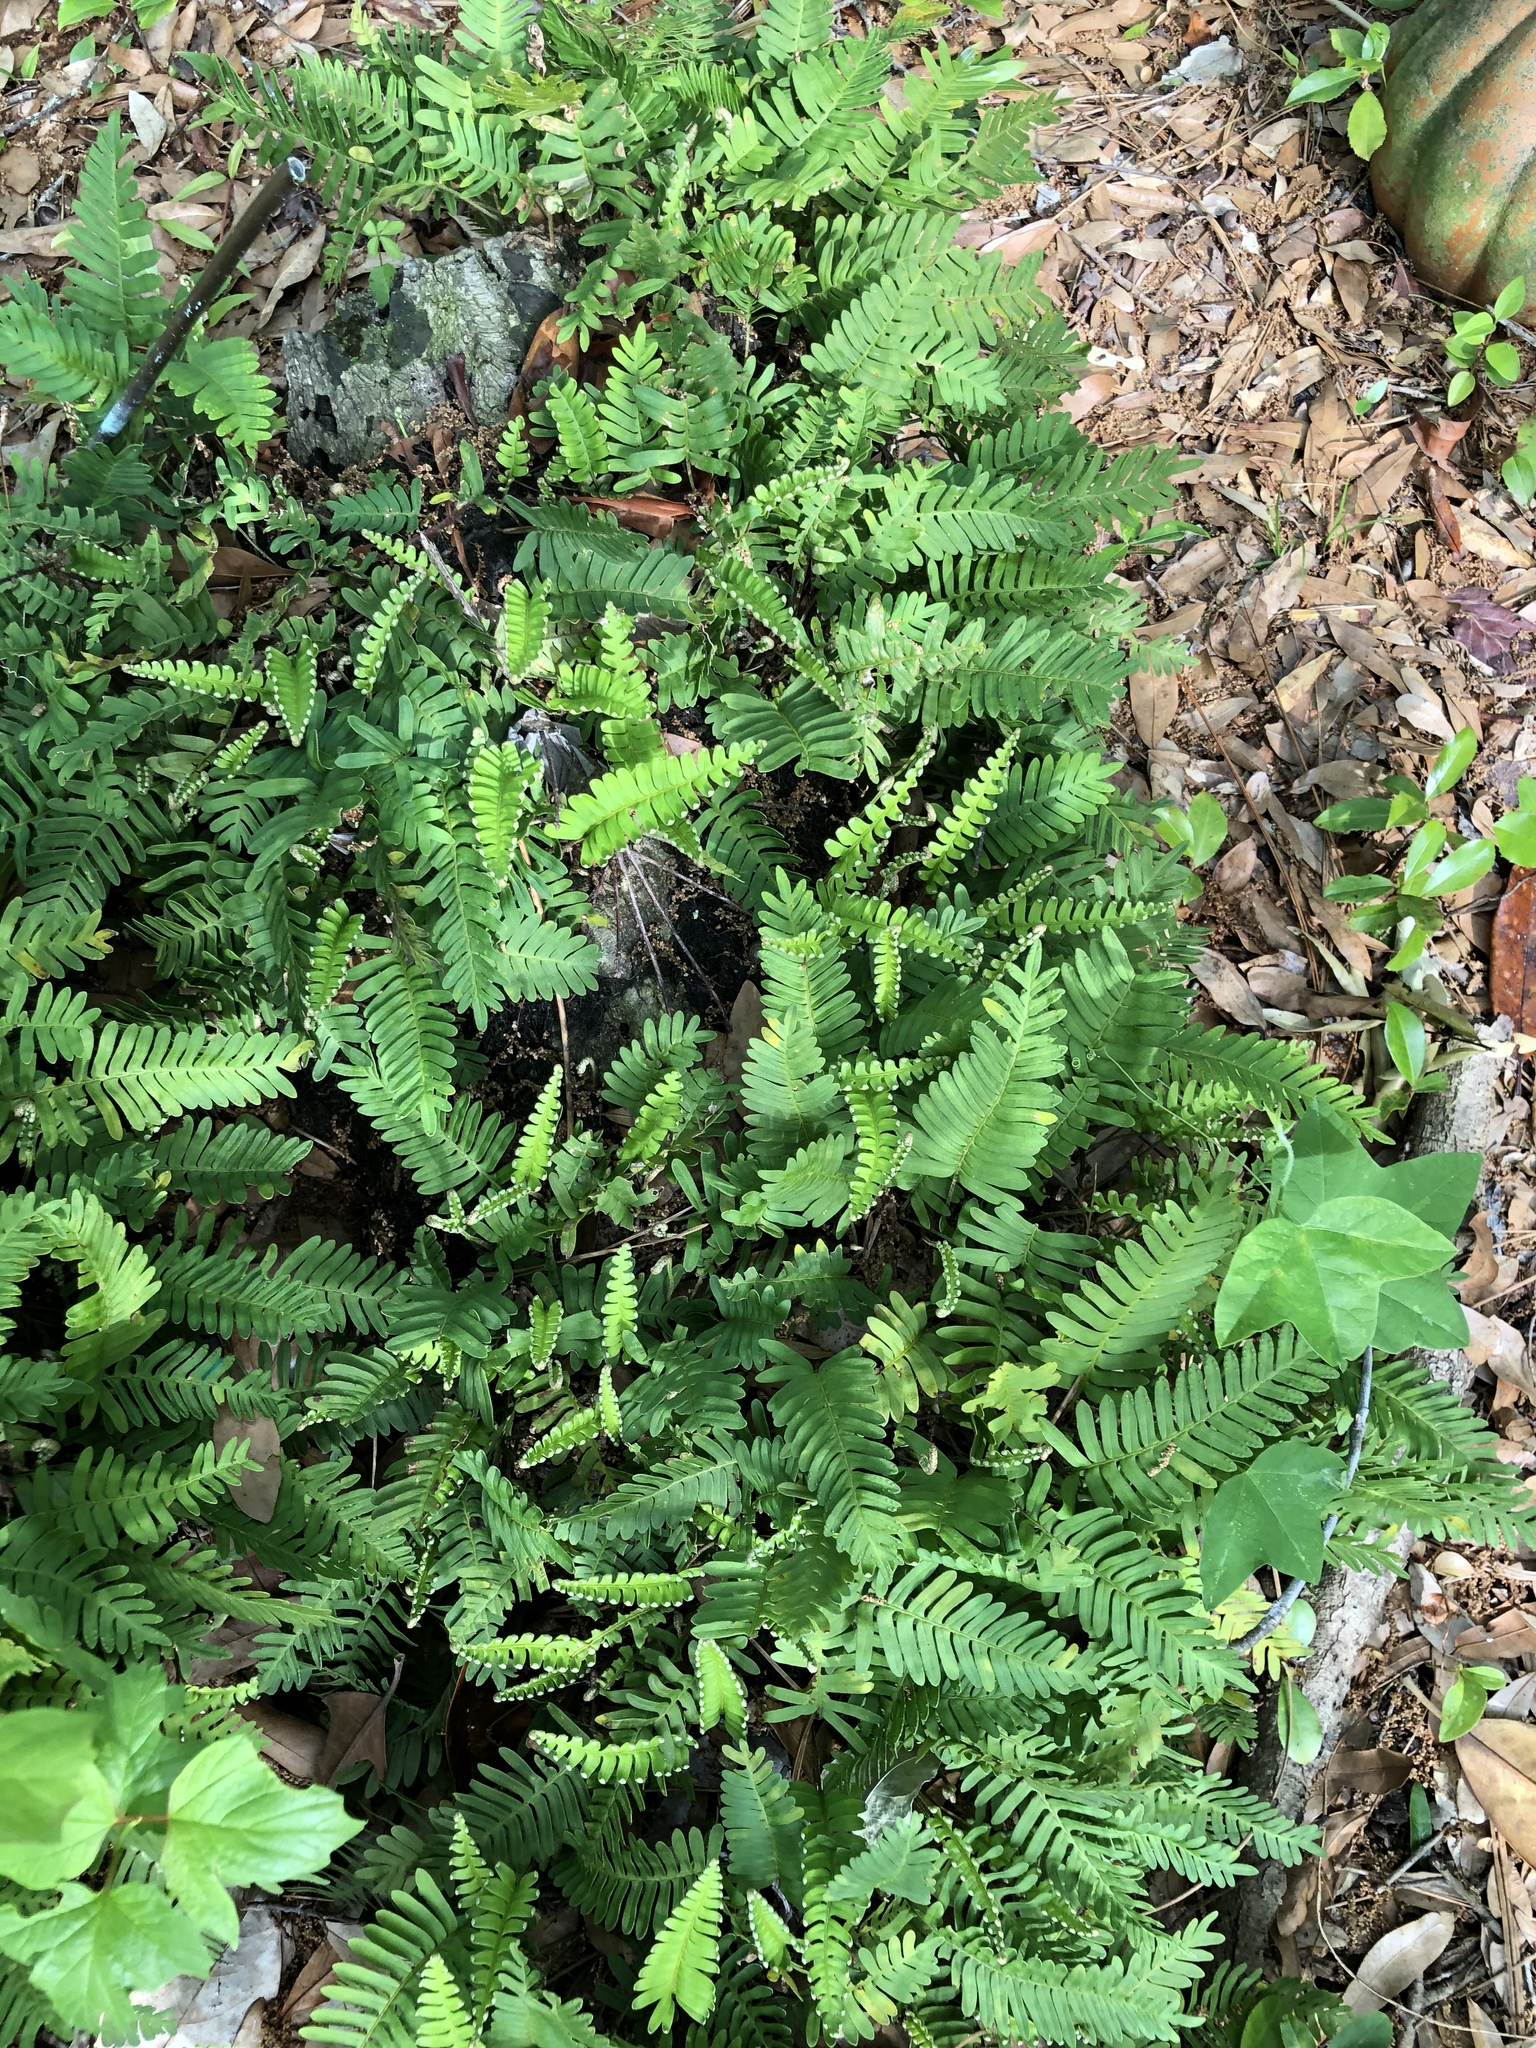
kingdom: Plantae
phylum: Tracheophyta
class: Polypodiopsida
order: Polypodiales
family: Polypodiaceae
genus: Pleopeltis
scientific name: Pleopeltis michauxiana
